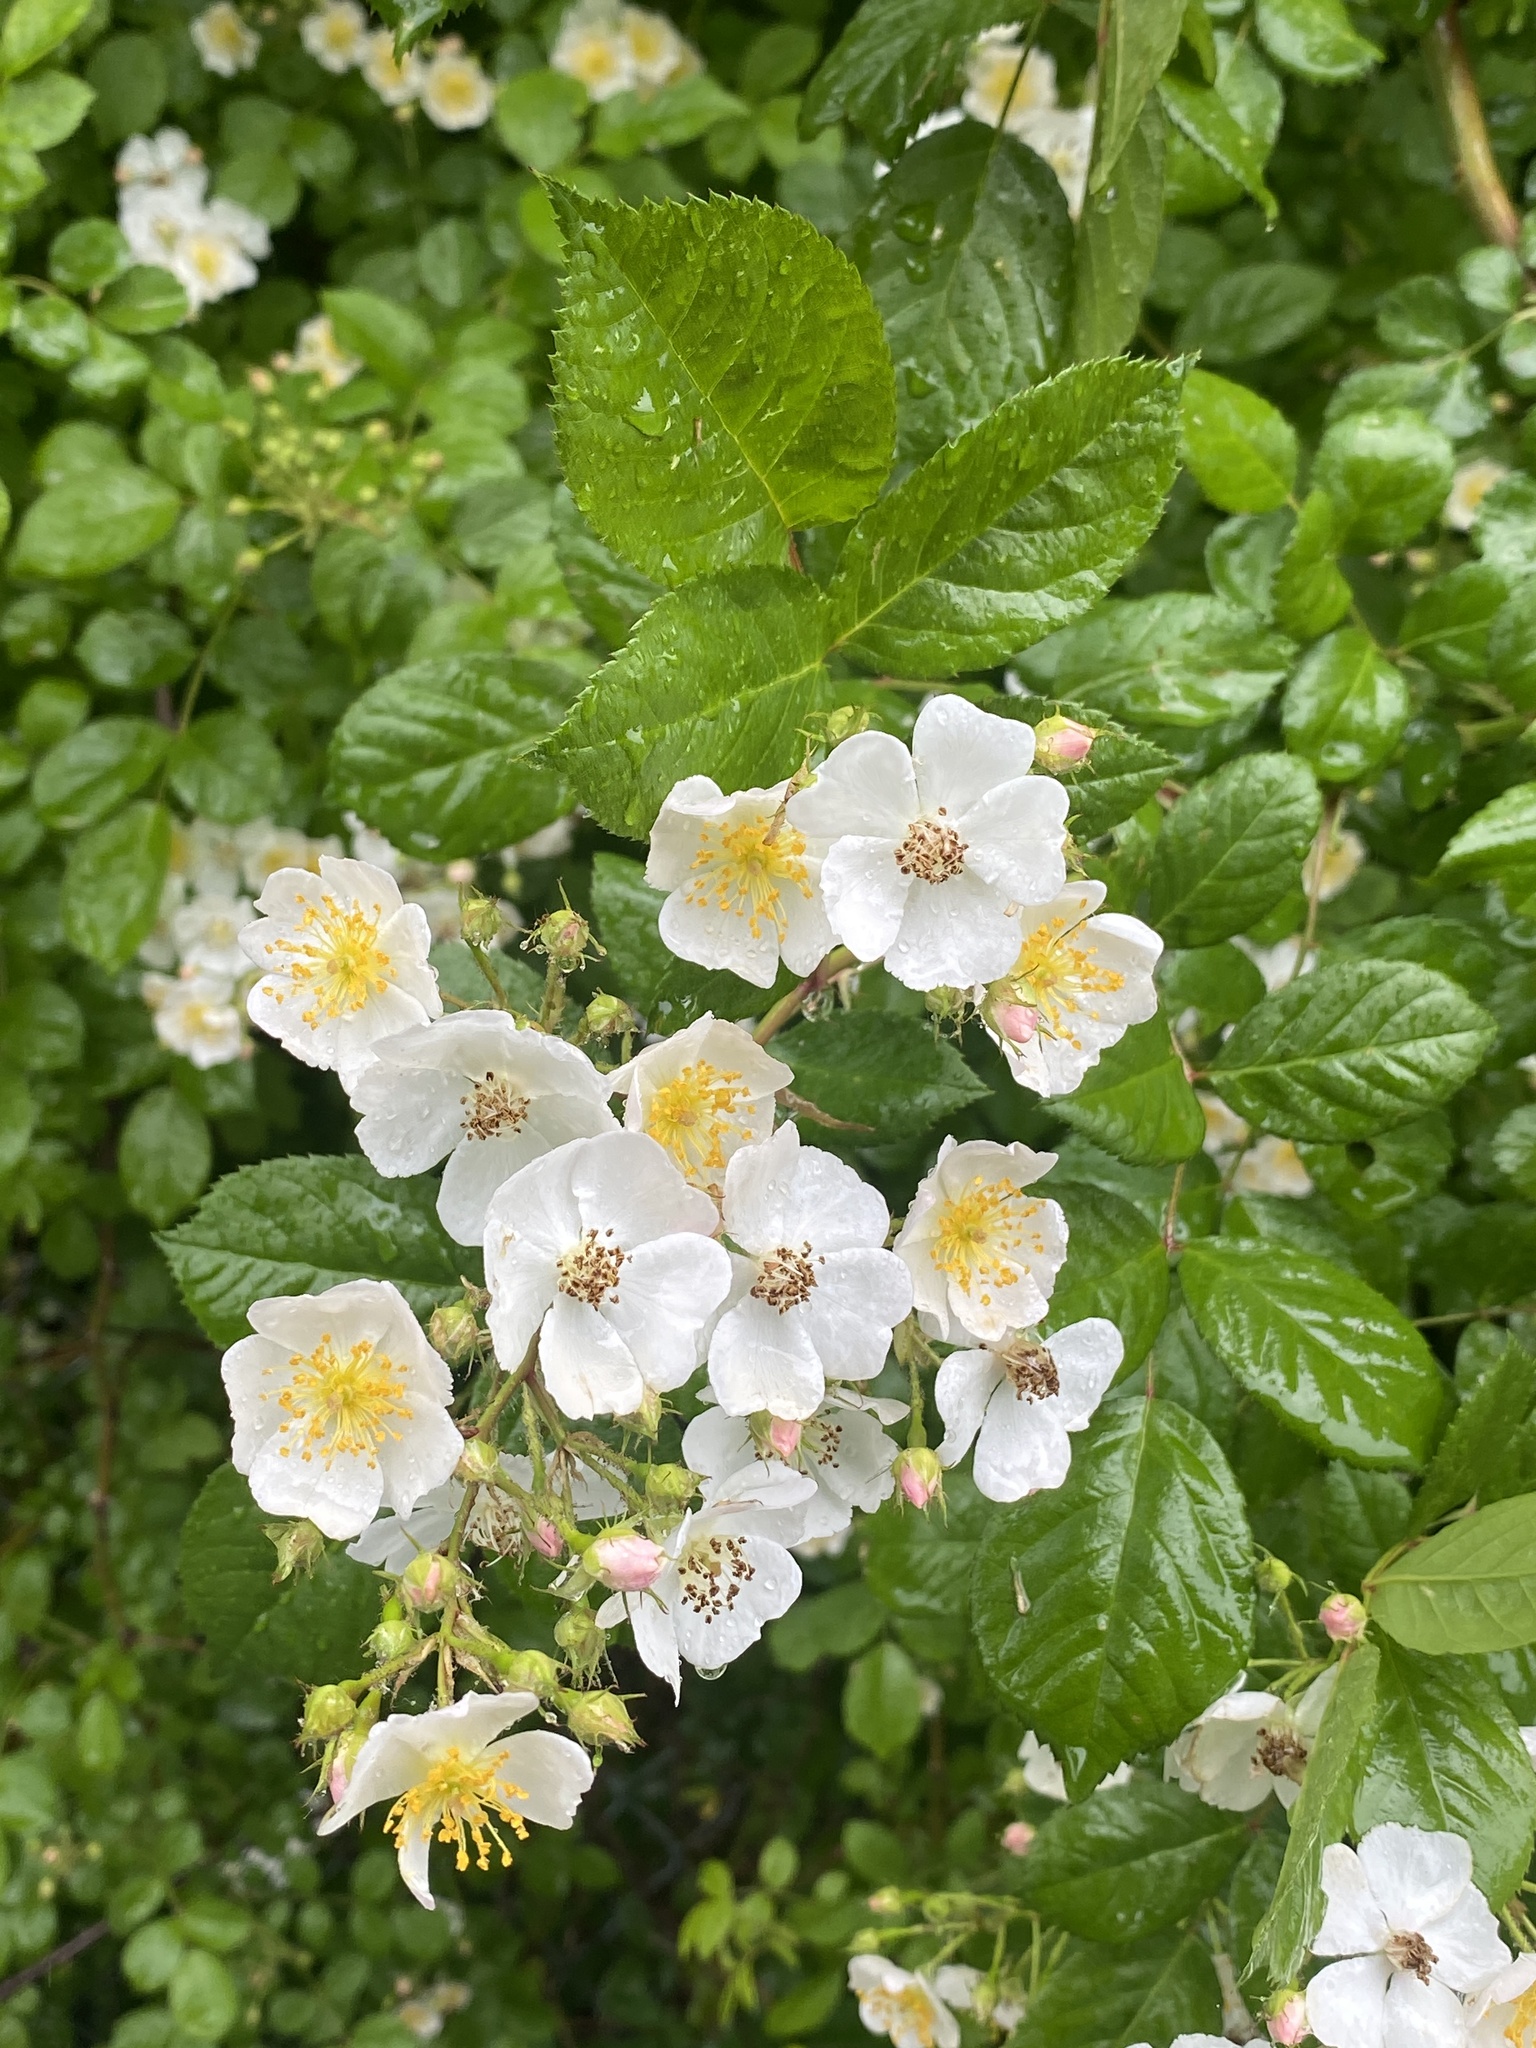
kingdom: Plantae
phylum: Tracheophyta
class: Magnoliopsida
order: Rosales
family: Rosaceae
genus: Rosa
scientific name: Rosa multiflora
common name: Multiflora rose
